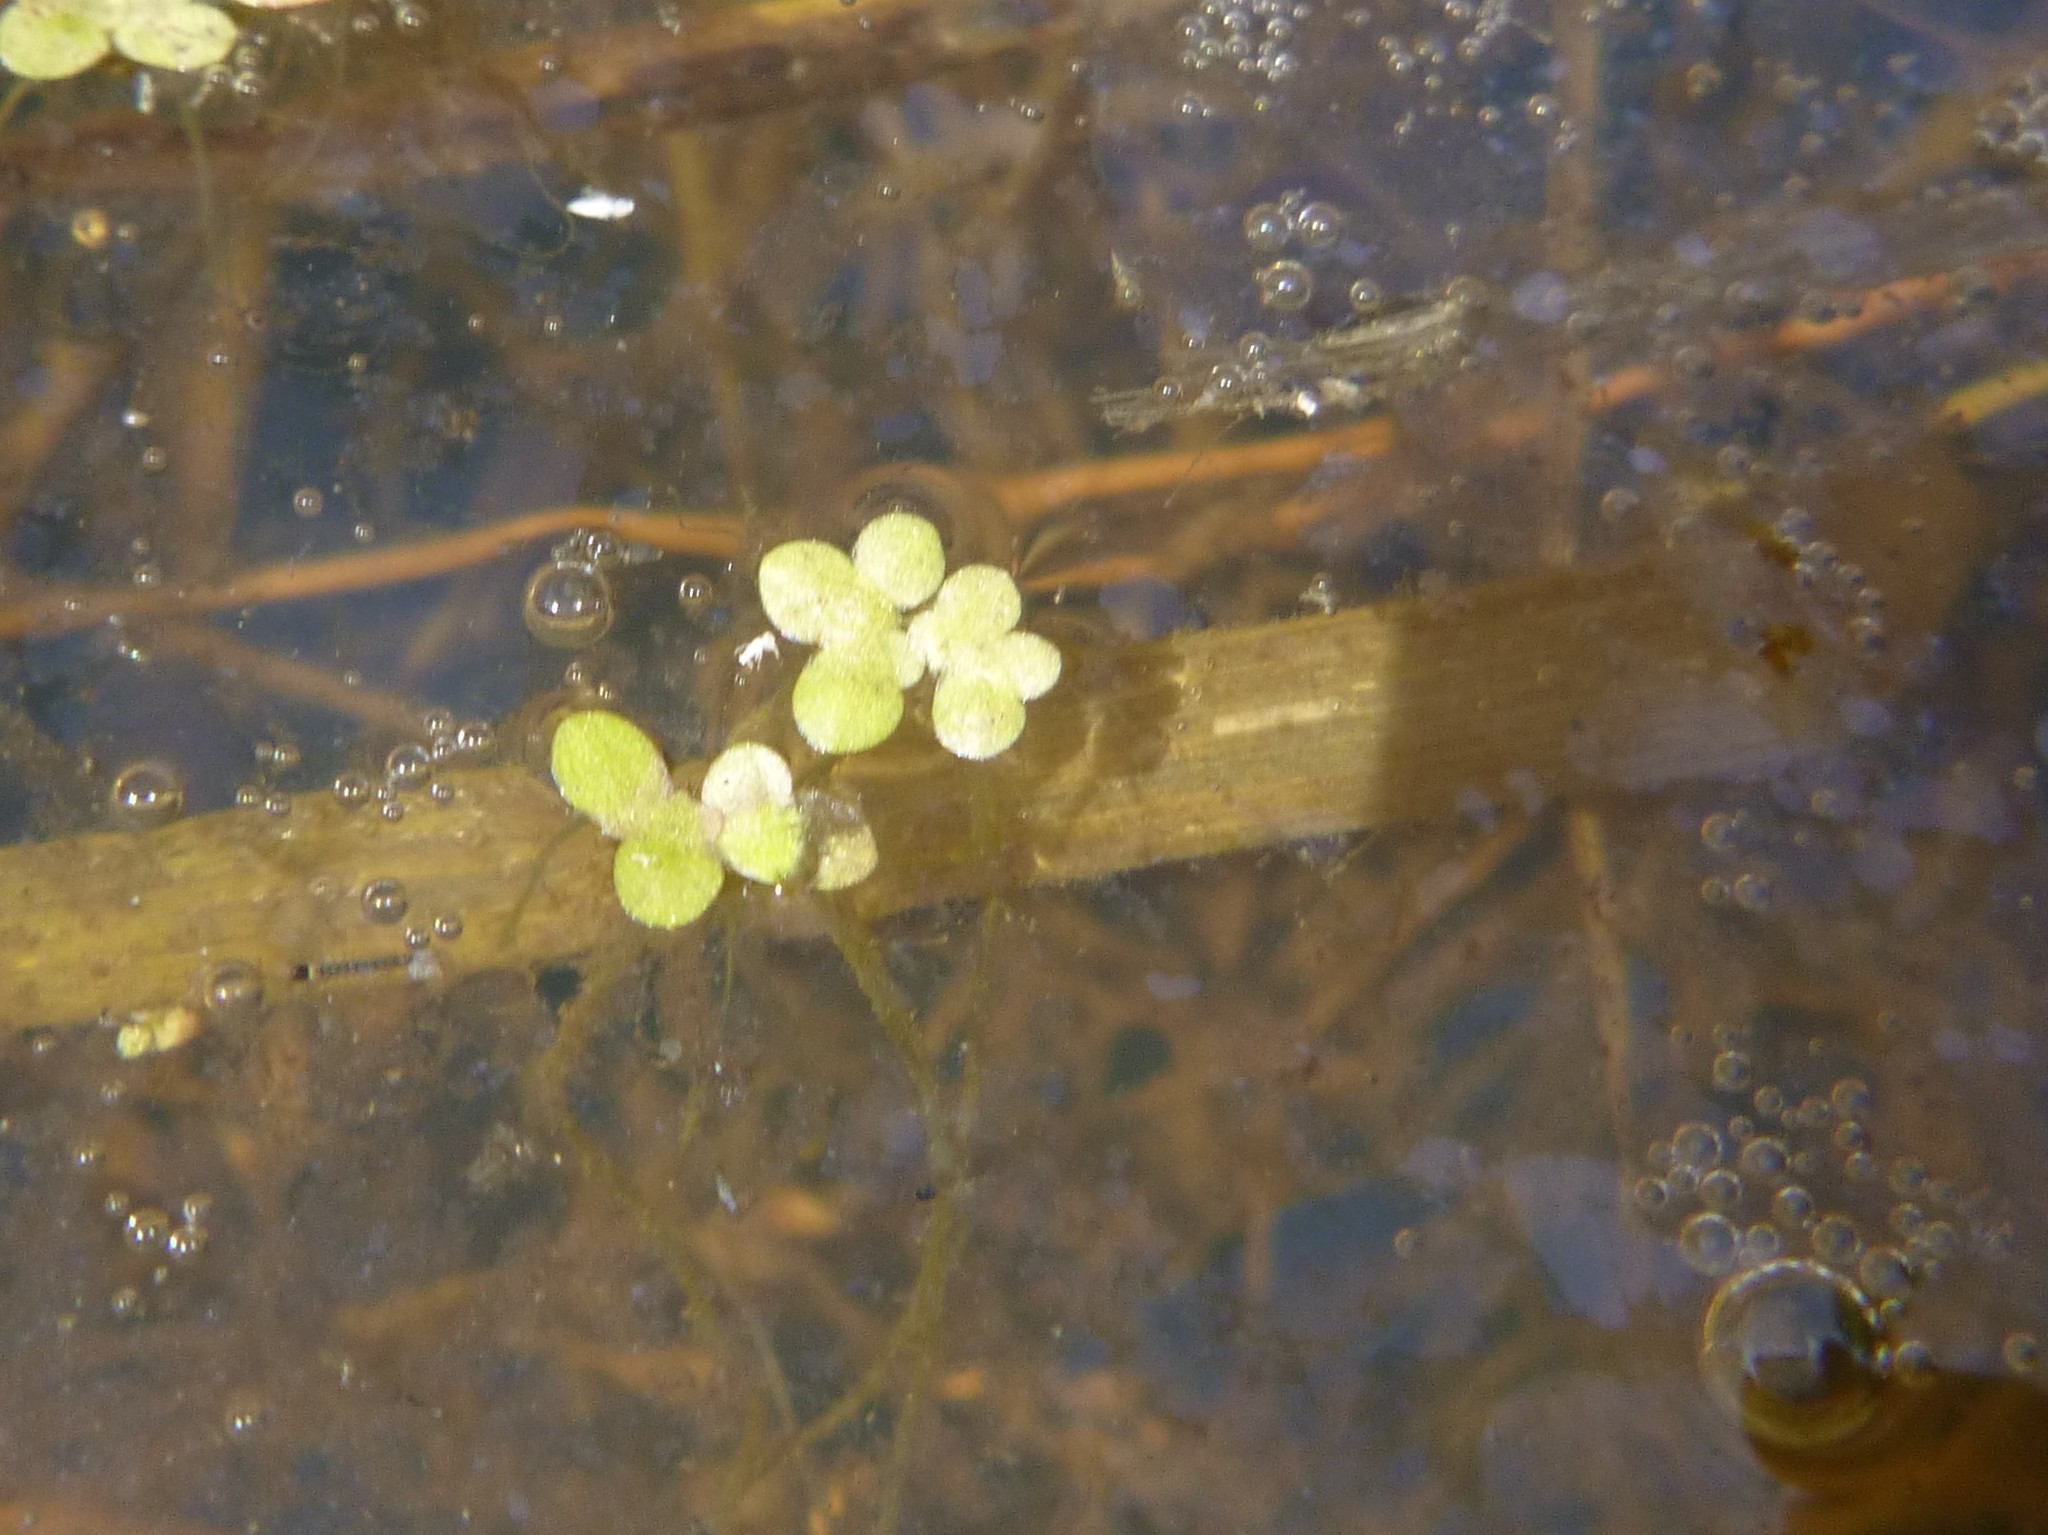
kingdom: Plantae
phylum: Tracheophyta
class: Liliopsida
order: Alismatales
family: Araceae
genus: Lemna
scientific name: Lemna minor
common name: Common duckweed
